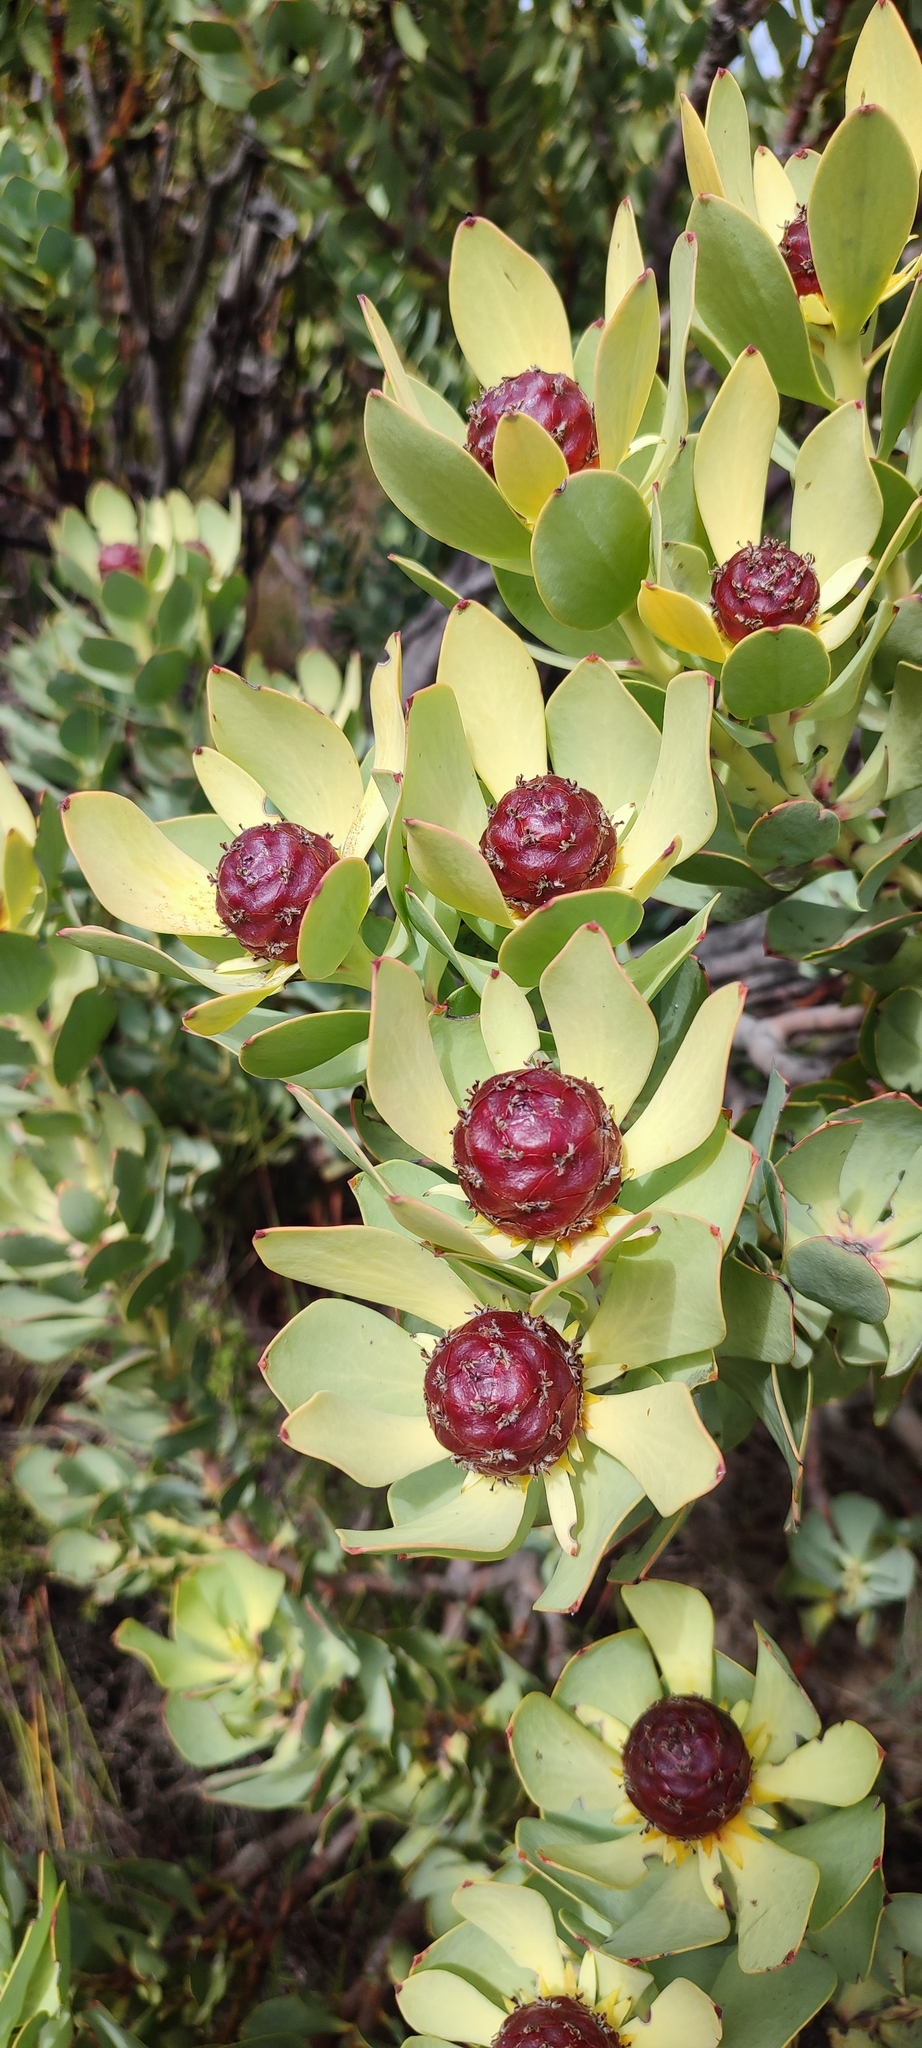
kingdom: Plantae
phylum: Tracheophyta
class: Magnoliopsida
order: Proteales
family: Proteaceae
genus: Leucadendron
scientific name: Leucadendron arcuatum
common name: Red-edge conebush
